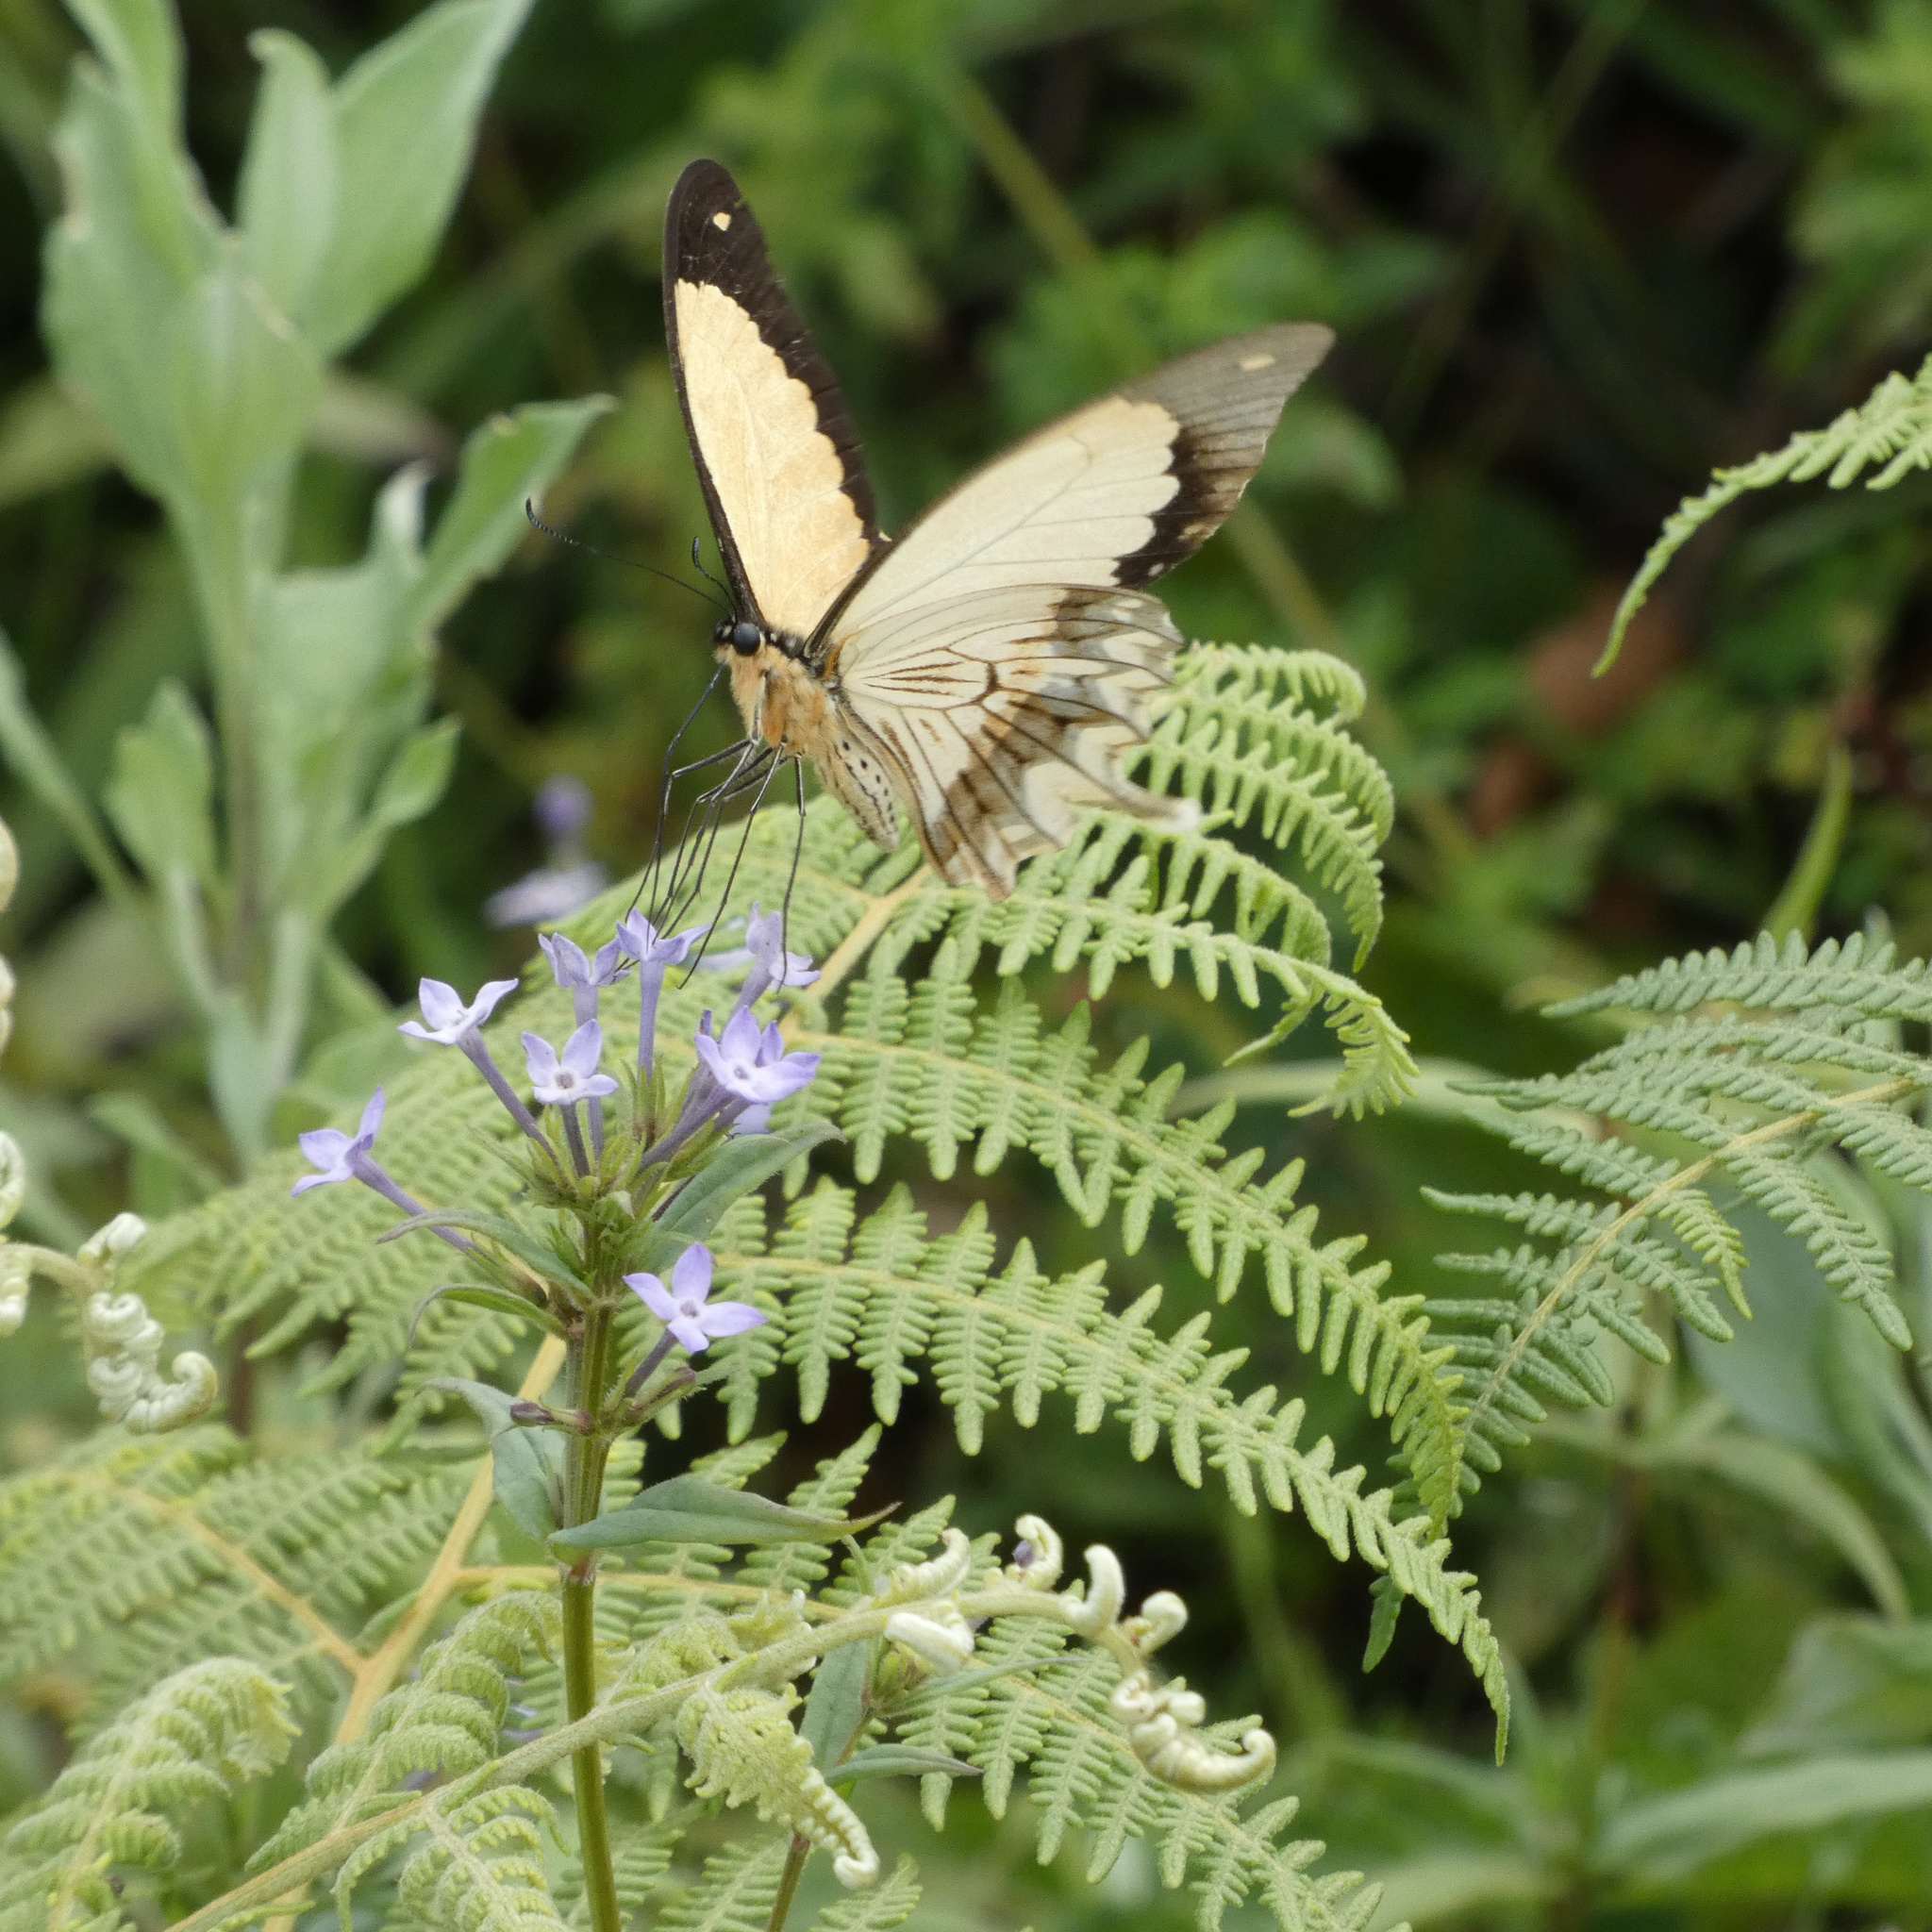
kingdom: Animalia
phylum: Arthropoda
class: Insecta
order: Lepidoptera
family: Papilionidae
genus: Papilio
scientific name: Papilio dardanus
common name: Flying handkerchief
